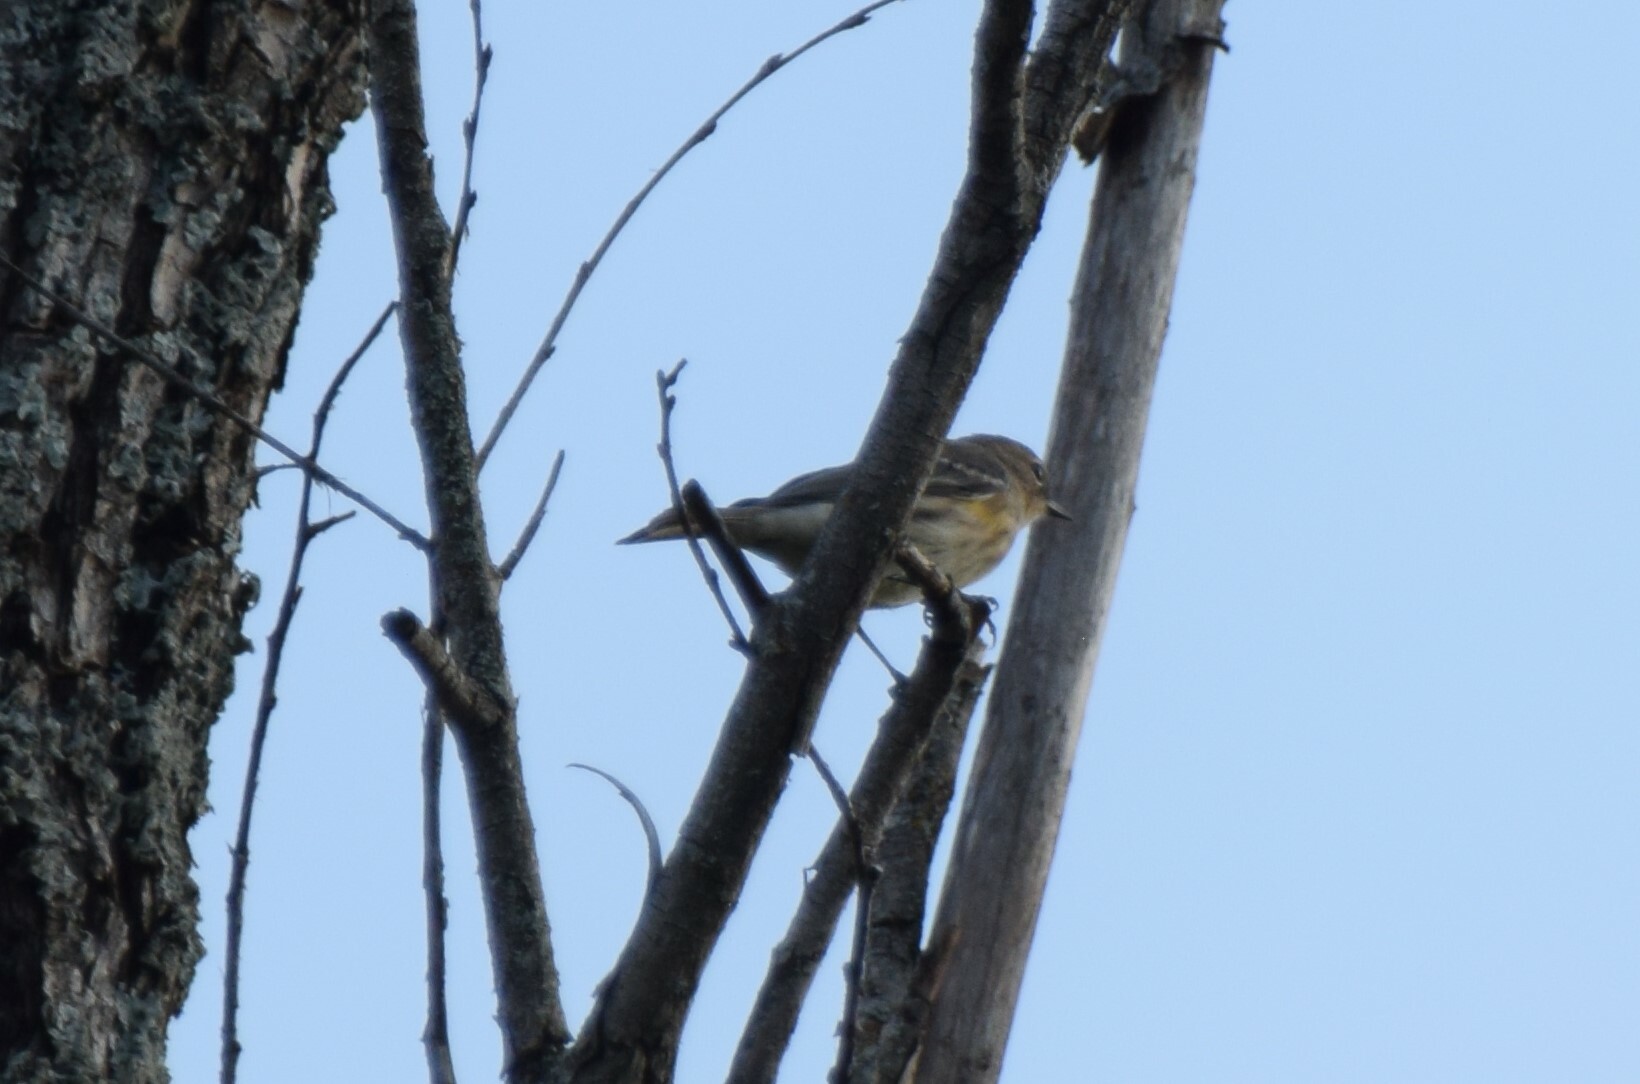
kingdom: Animalia
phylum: Chordata
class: Aves
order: Passeriformes
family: Parulidae
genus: Setophaga
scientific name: Setophaga coronata
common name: Myrtle warbler
